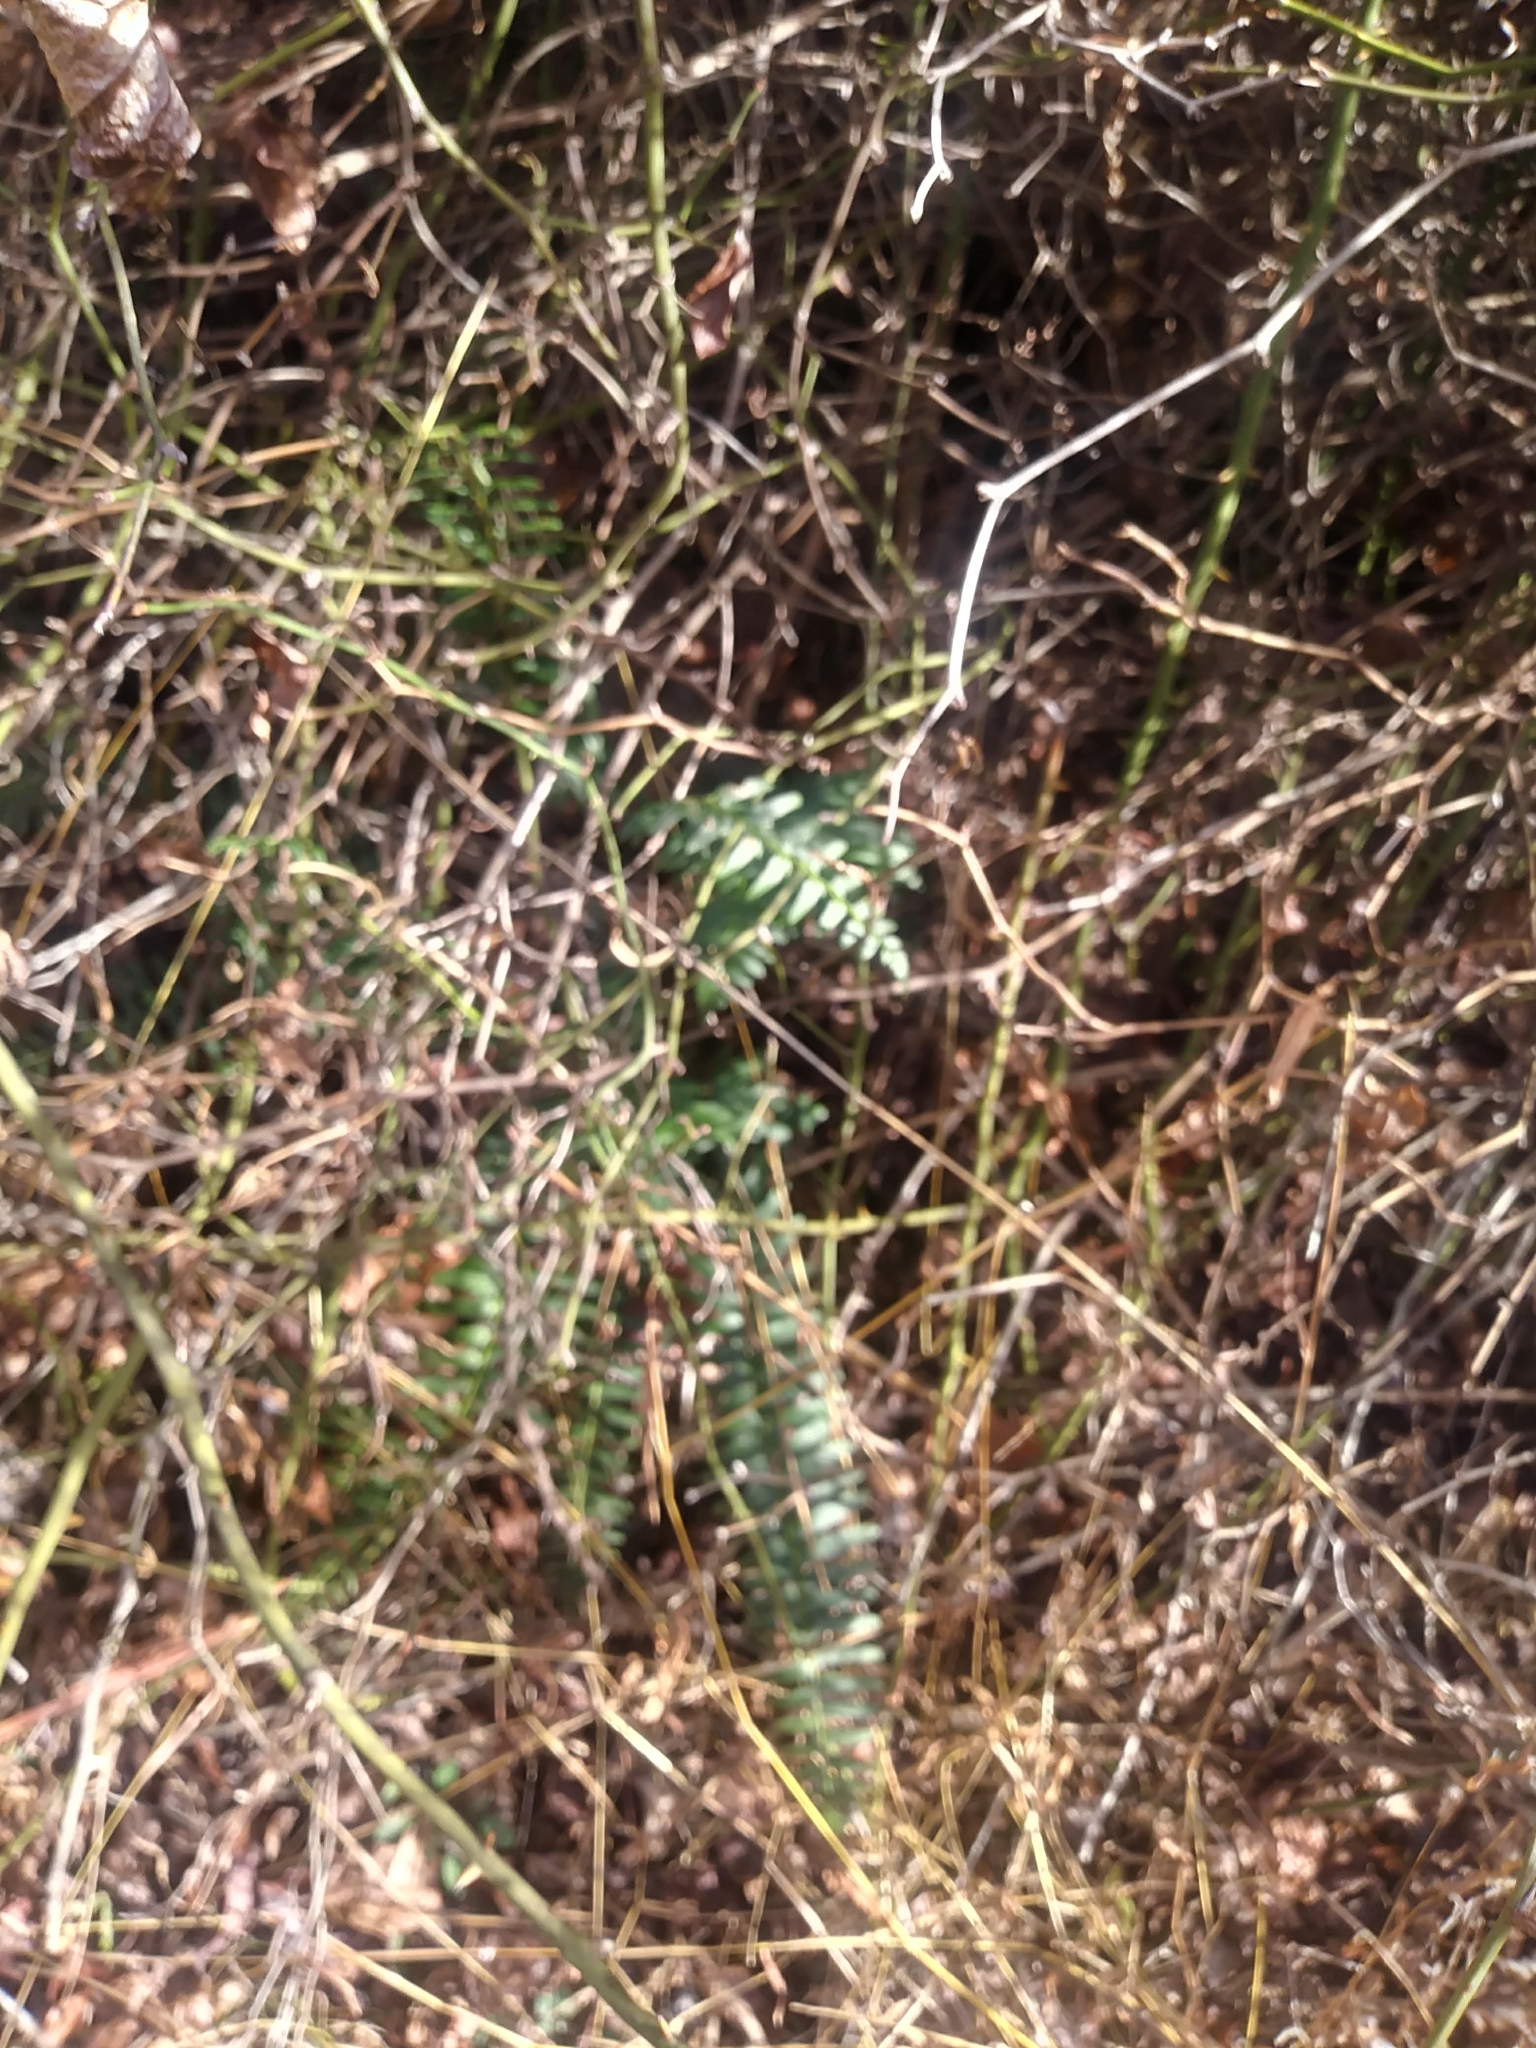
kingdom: Plantae
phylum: Tracheophyta
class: Polypodiopsida
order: Polypodiales
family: Dryopteridaceae
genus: Polystichum
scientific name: Polystichum acrostichoides
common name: Christmas fern
